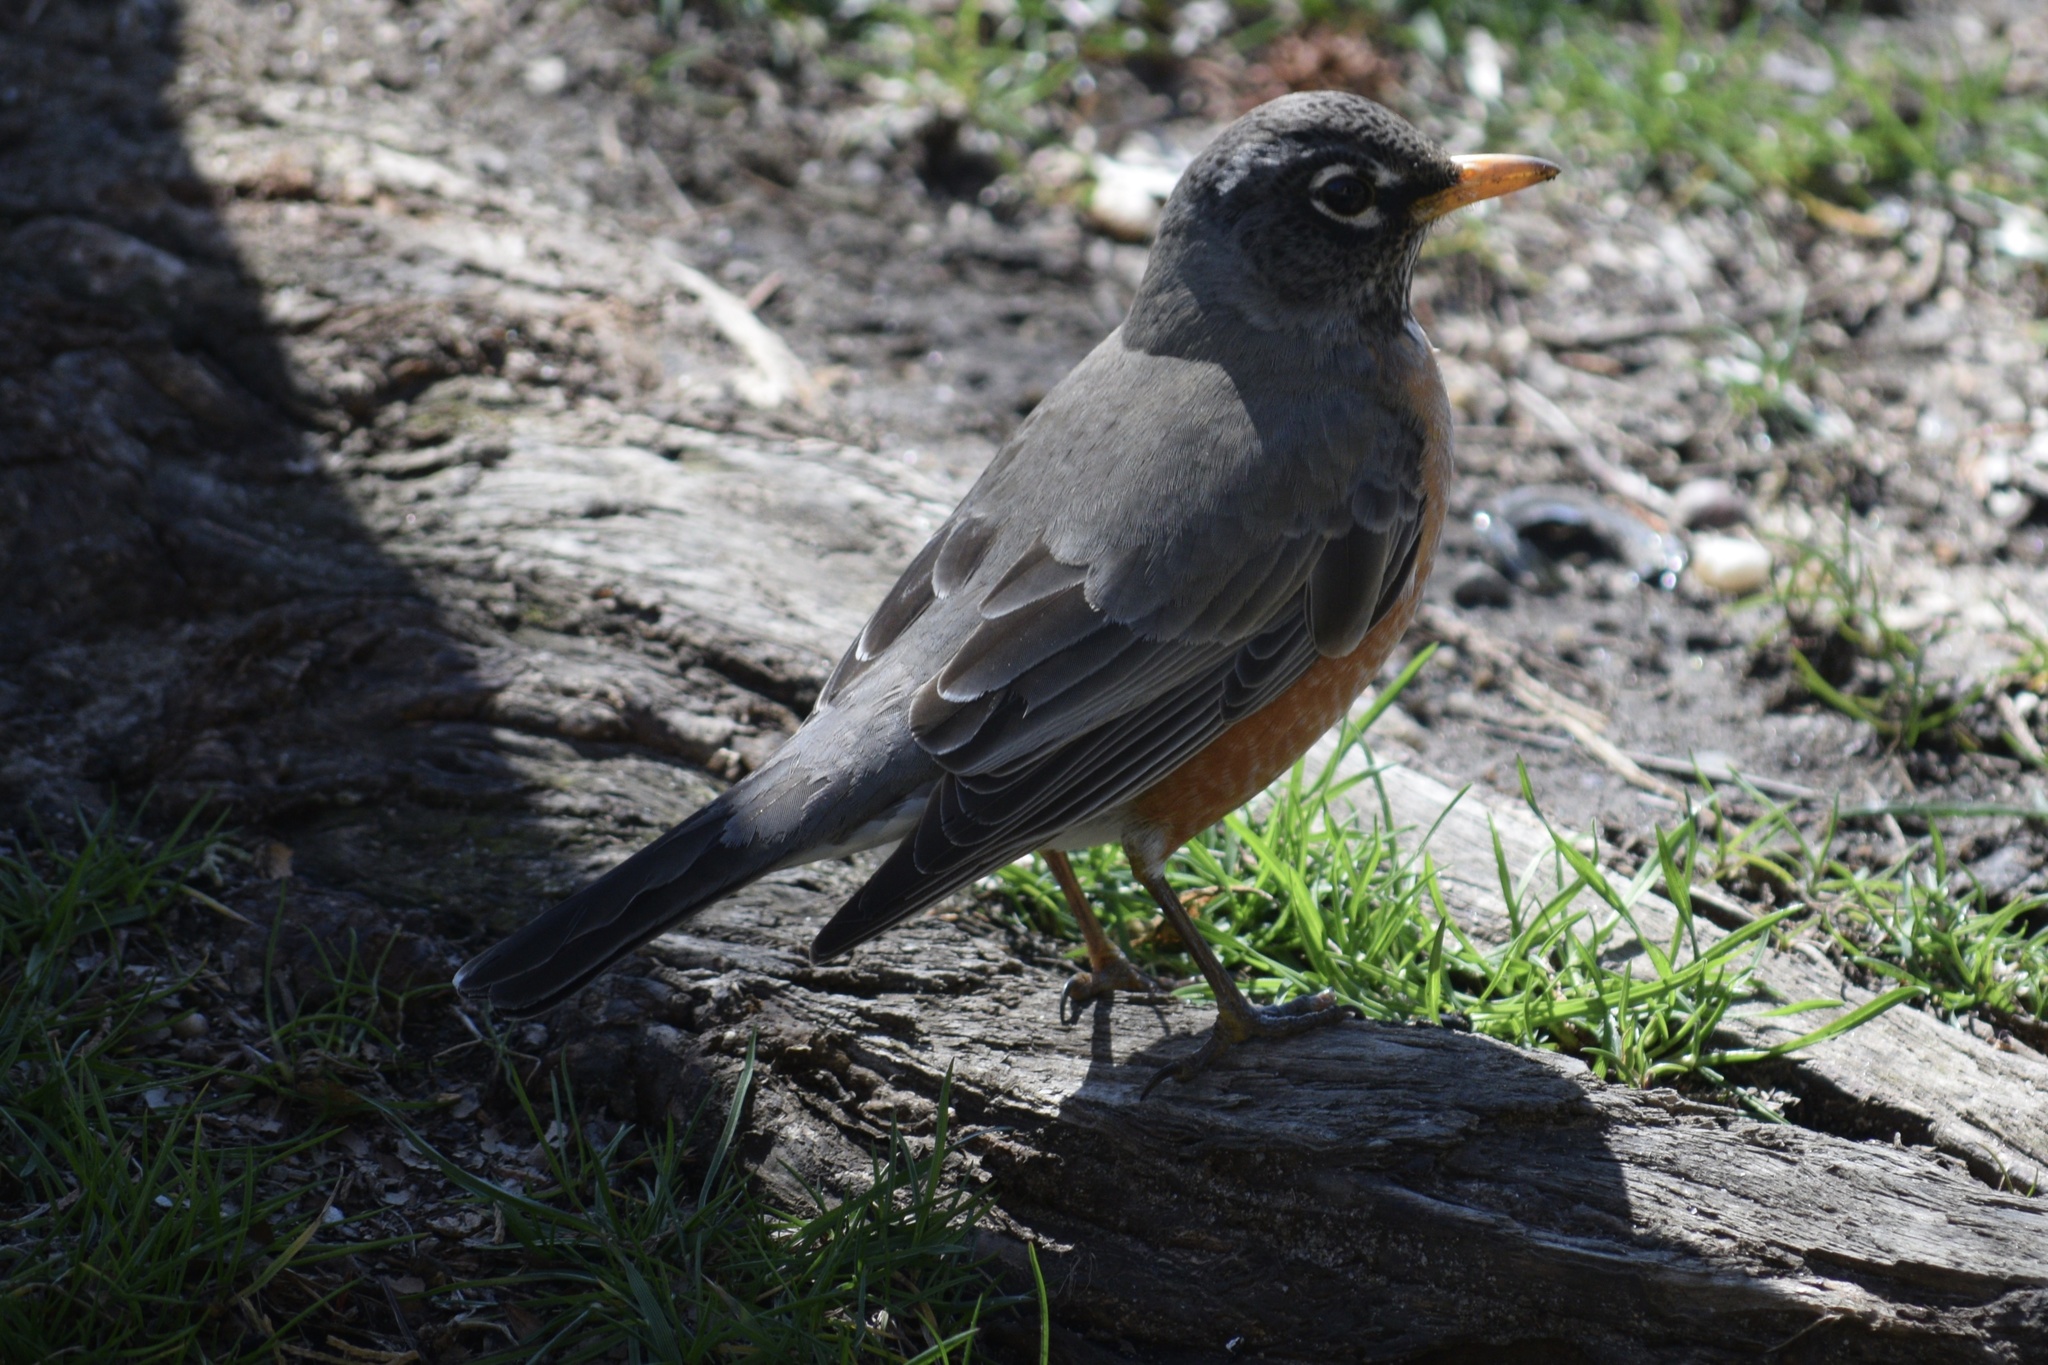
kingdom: Animalia
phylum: Chordata
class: Aves
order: Passeriformes
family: Turdidae
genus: Turdus
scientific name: Turdus migratorius
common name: American robin
